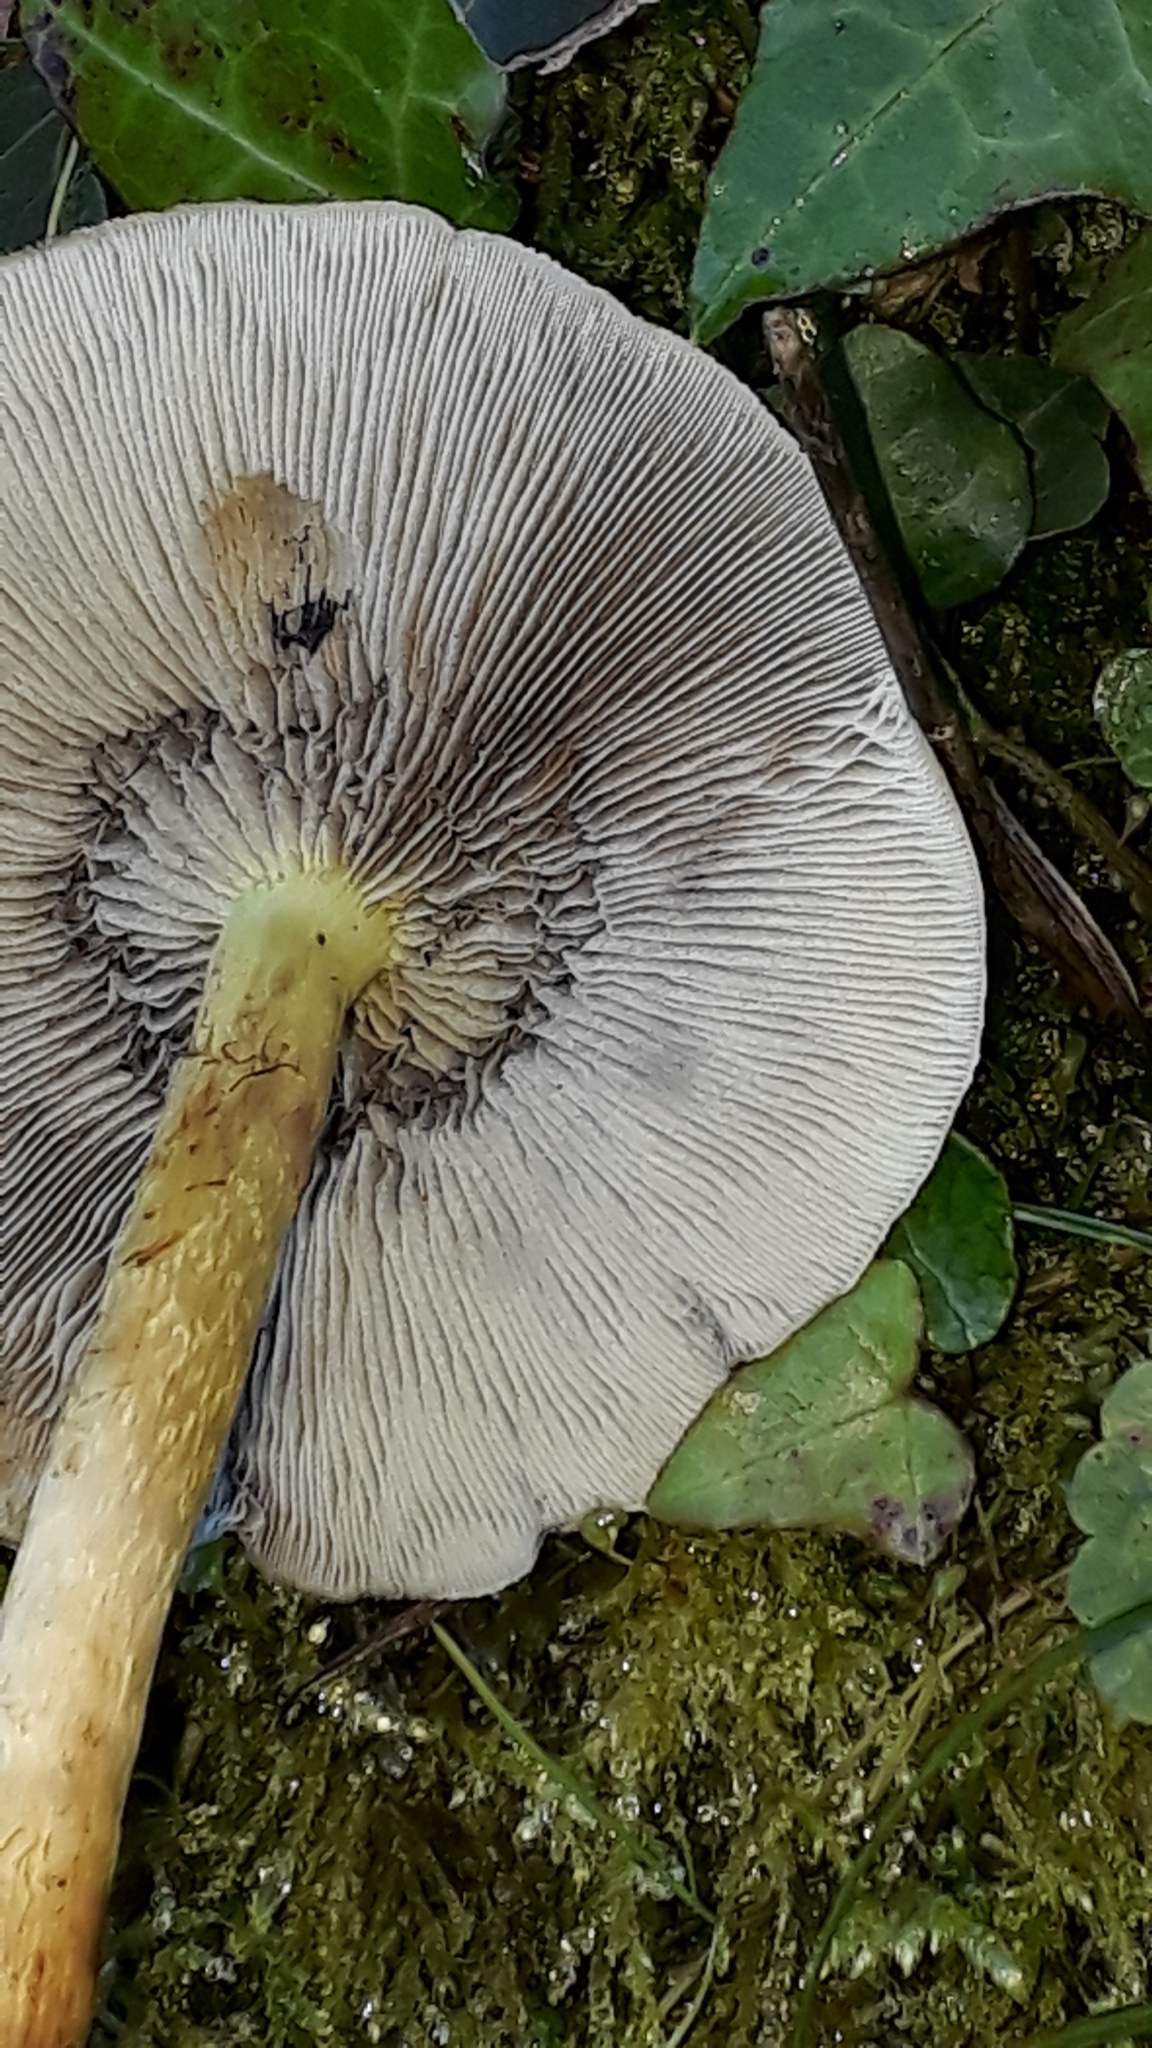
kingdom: Fungi
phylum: Basidiomycota
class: Agaricomycetes
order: Agaricales
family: Strophariaceae
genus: Hypholoma
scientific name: Hypholoma capnoides
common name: Conifer tuft
